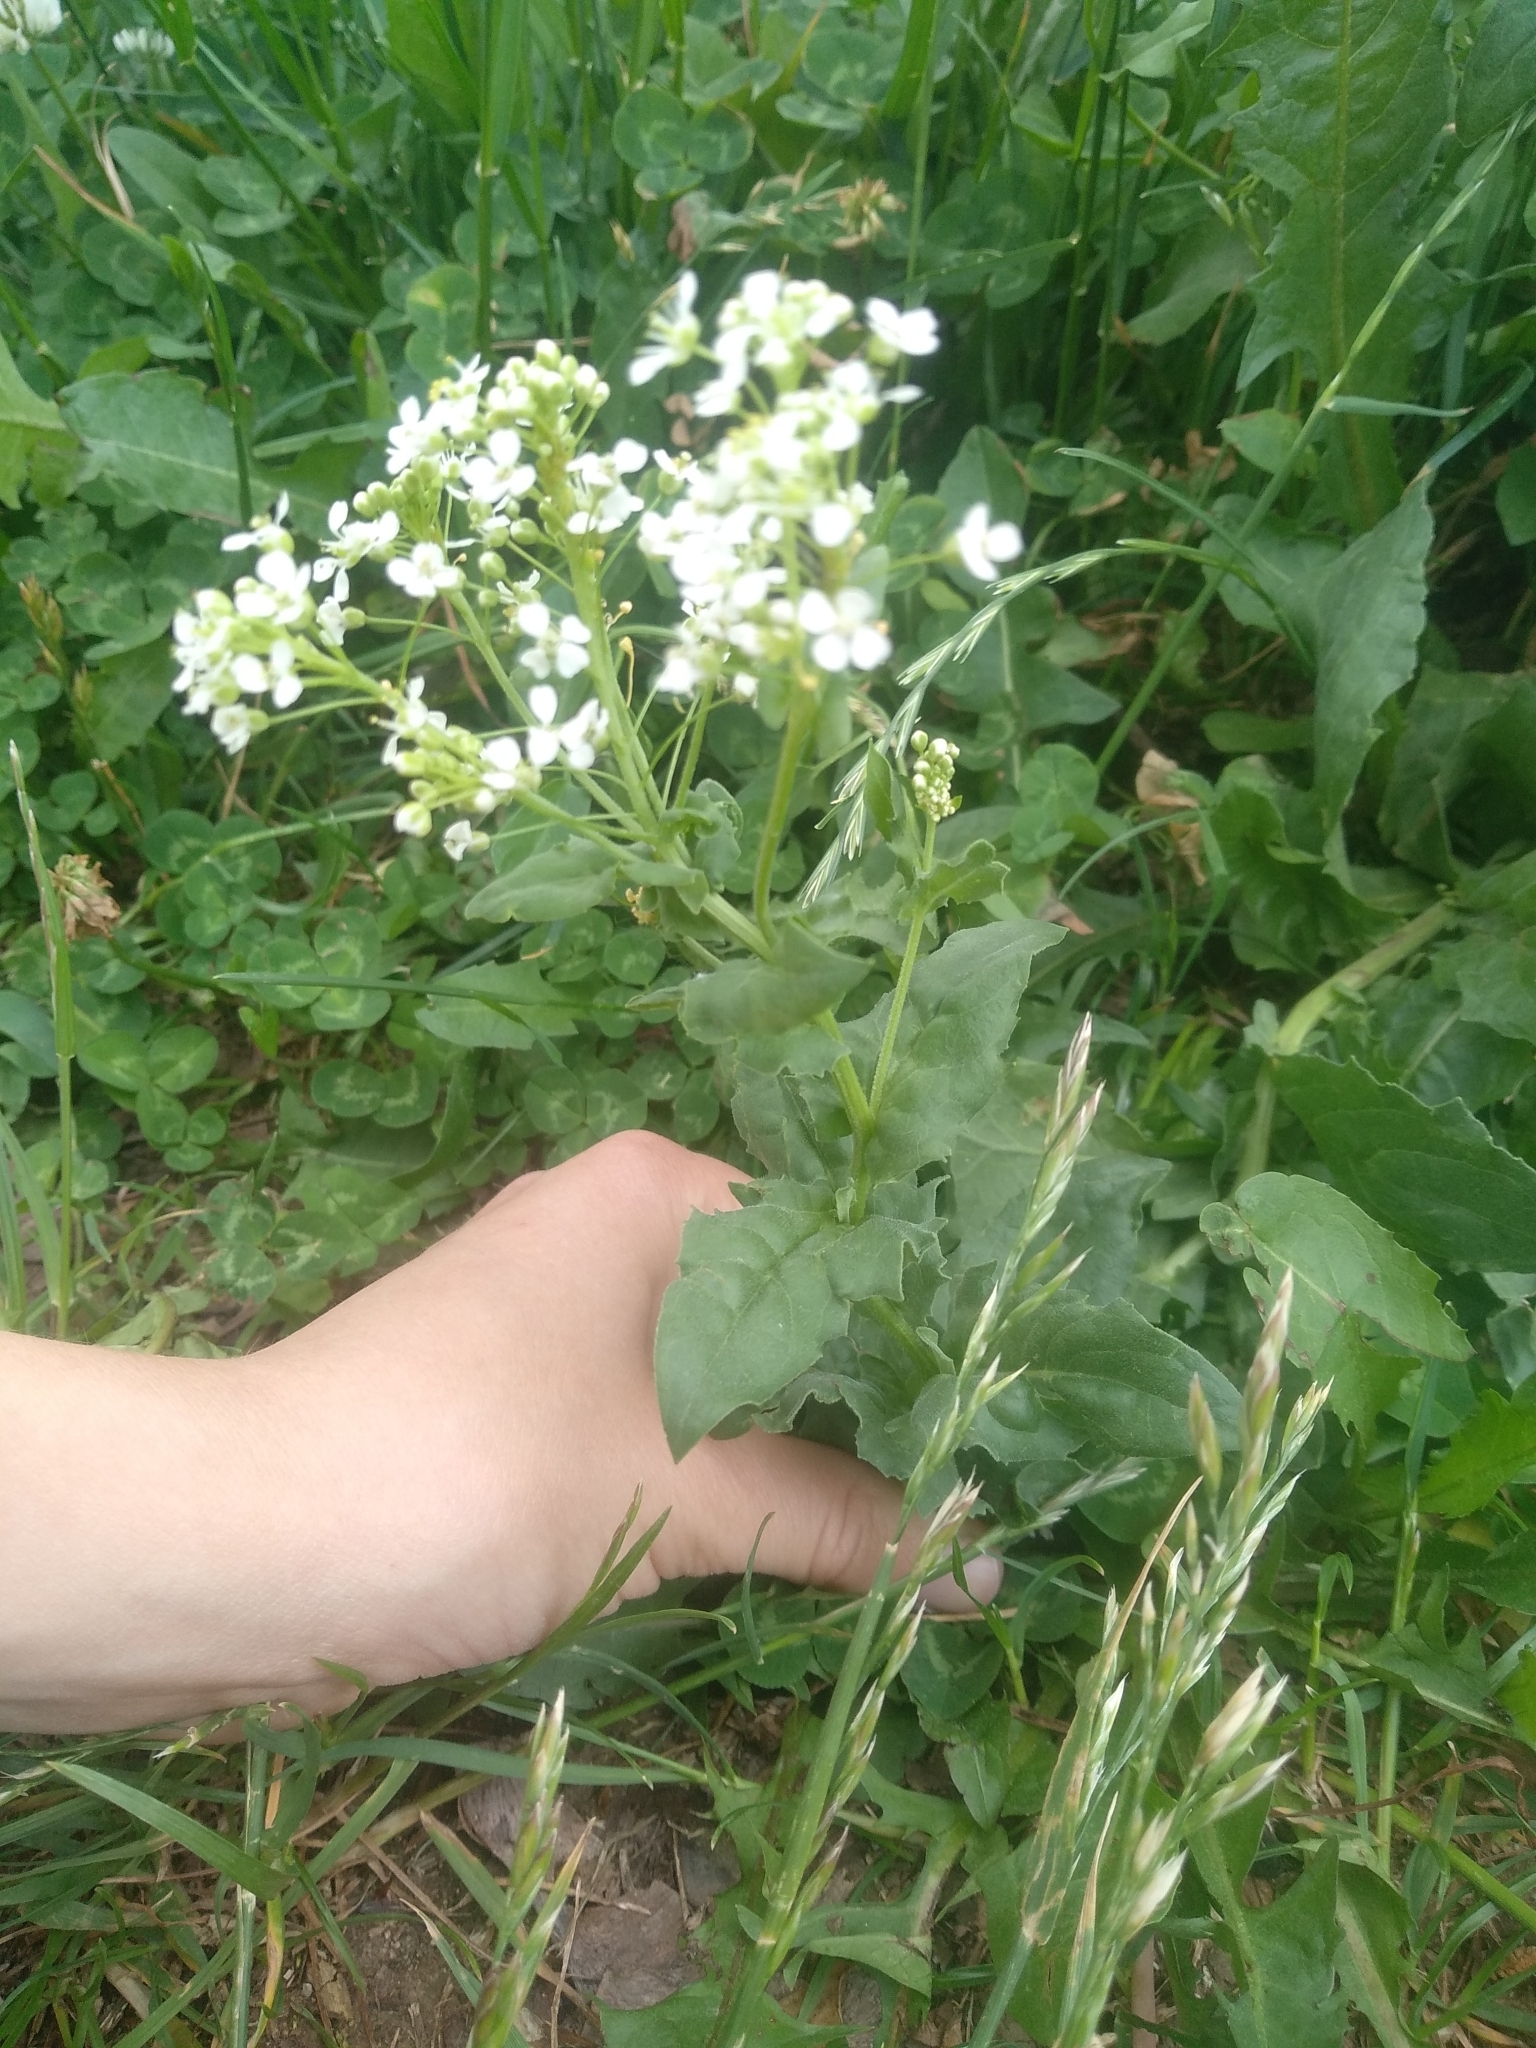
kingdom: Plantae
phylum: Tracheophyta
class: Magnoliopsida
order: Brassicales
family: Brassicaceae
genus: Lepidium
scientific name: Lepidium draba
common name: Hoary cress
